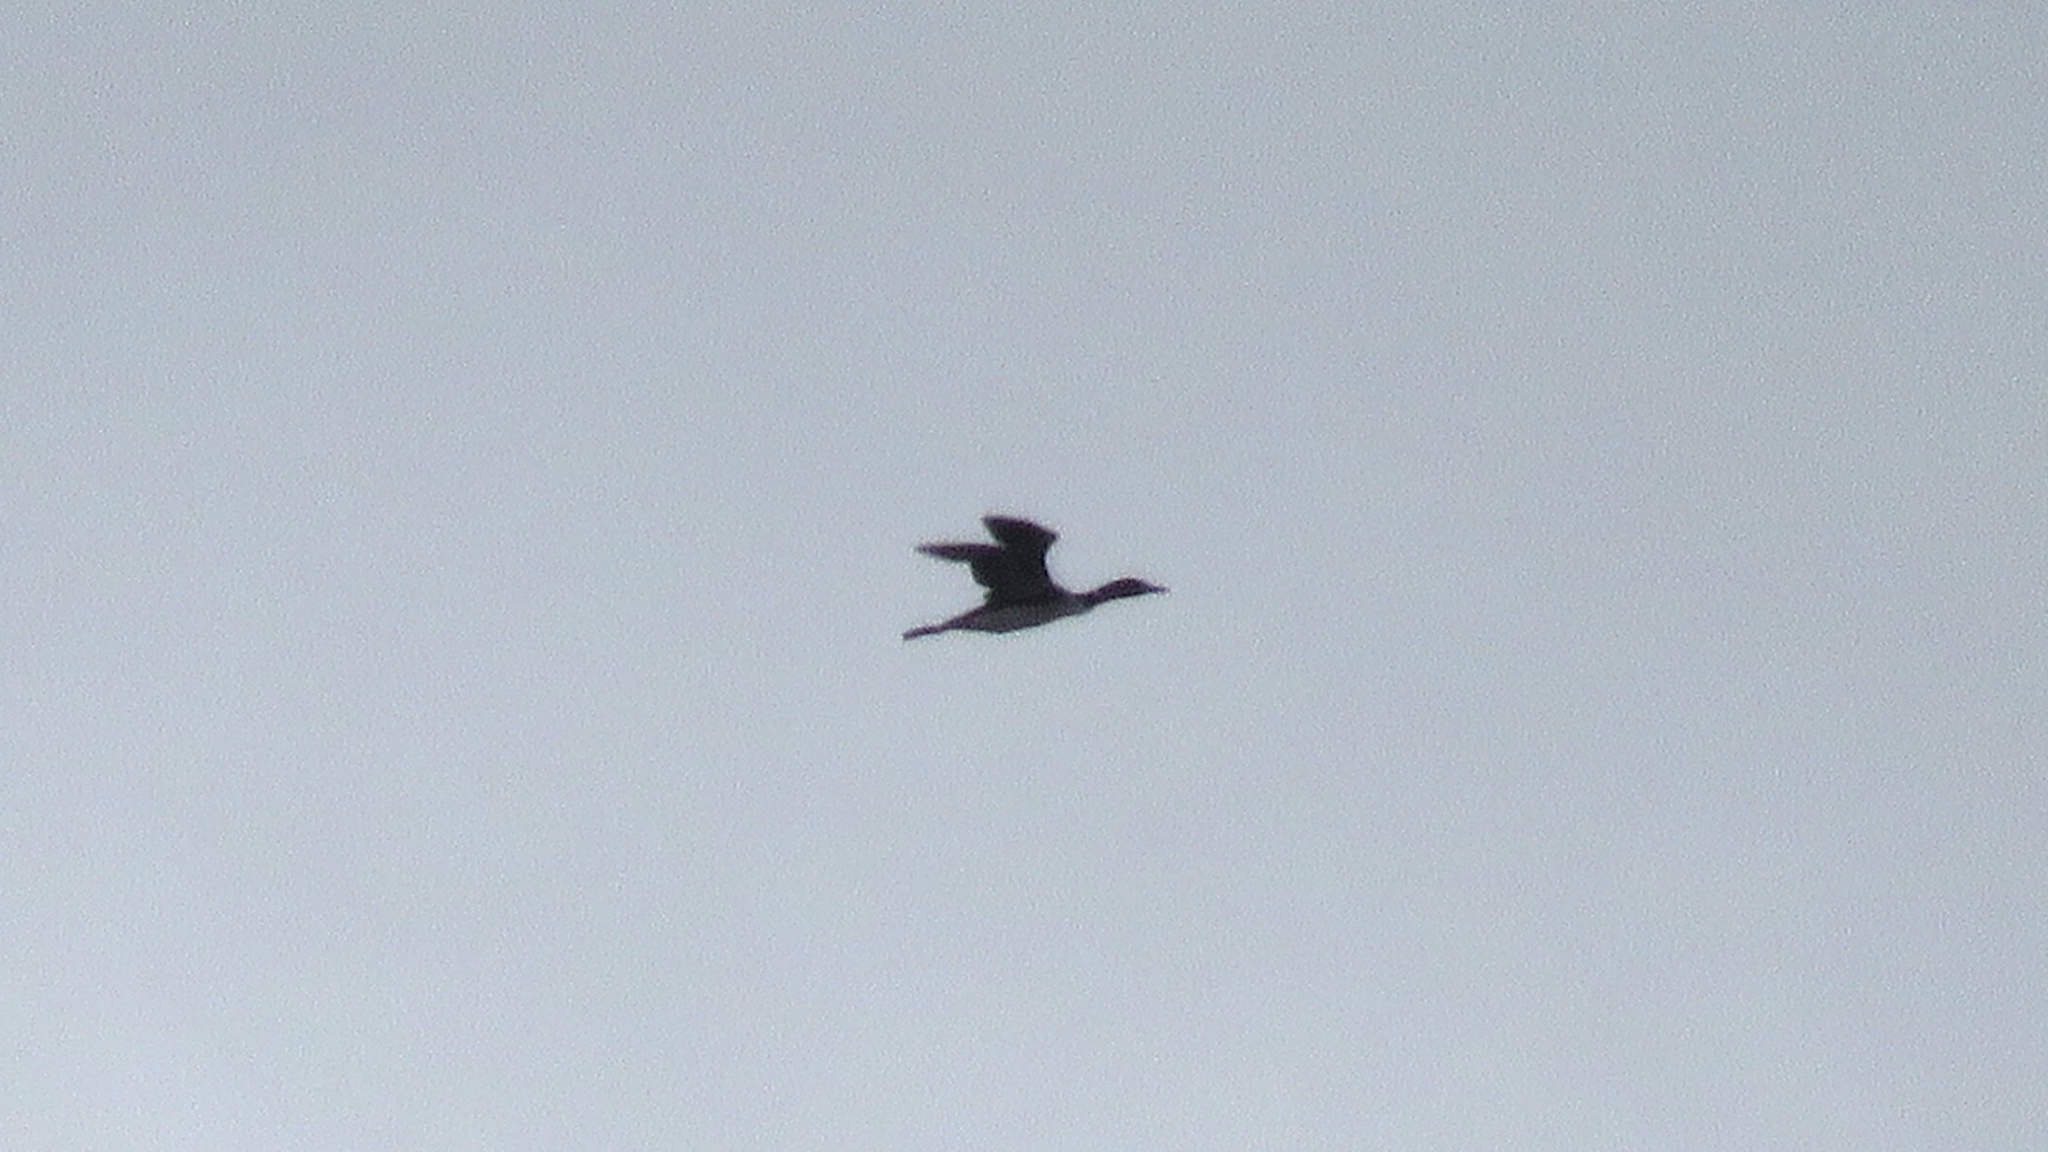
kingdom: Animalia
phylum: Chordata
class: Aves
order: Gaviiformes
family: Gaviidae
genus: Gavia
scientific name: Gavia immer
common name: Common loon
